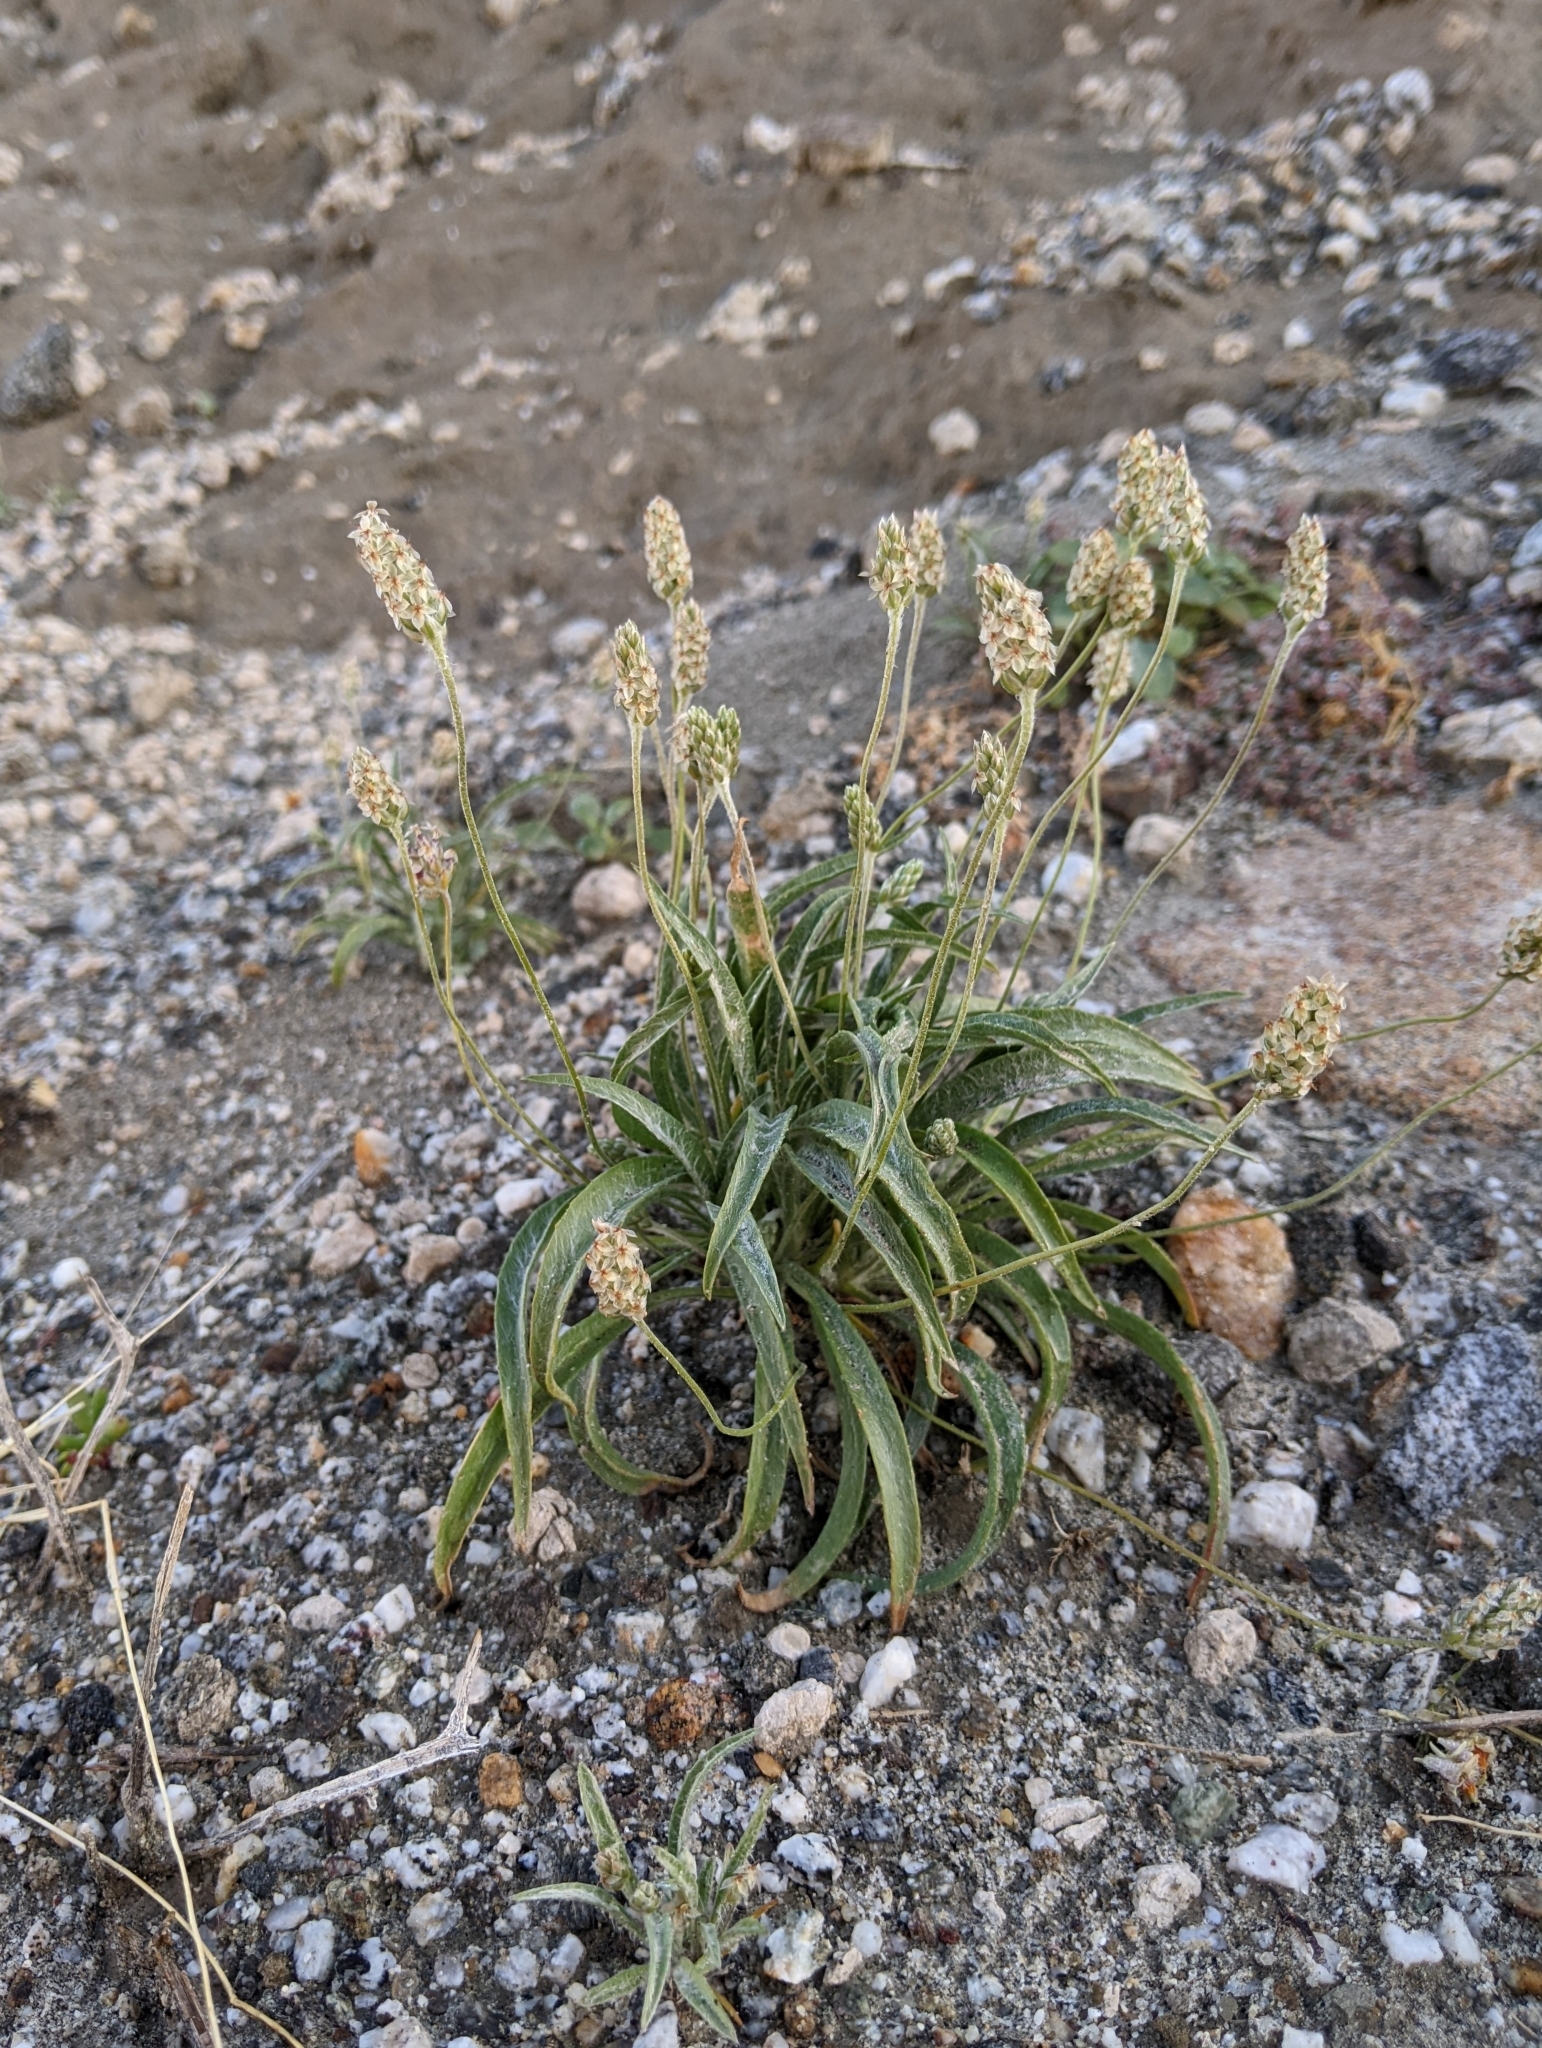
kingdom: Plantae
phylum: Tracheophyta
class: Magnoliopsida
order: Lamiales
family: Plantaginaceae
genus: Plantago
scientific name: Plantago ovata
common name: Blond plantain
